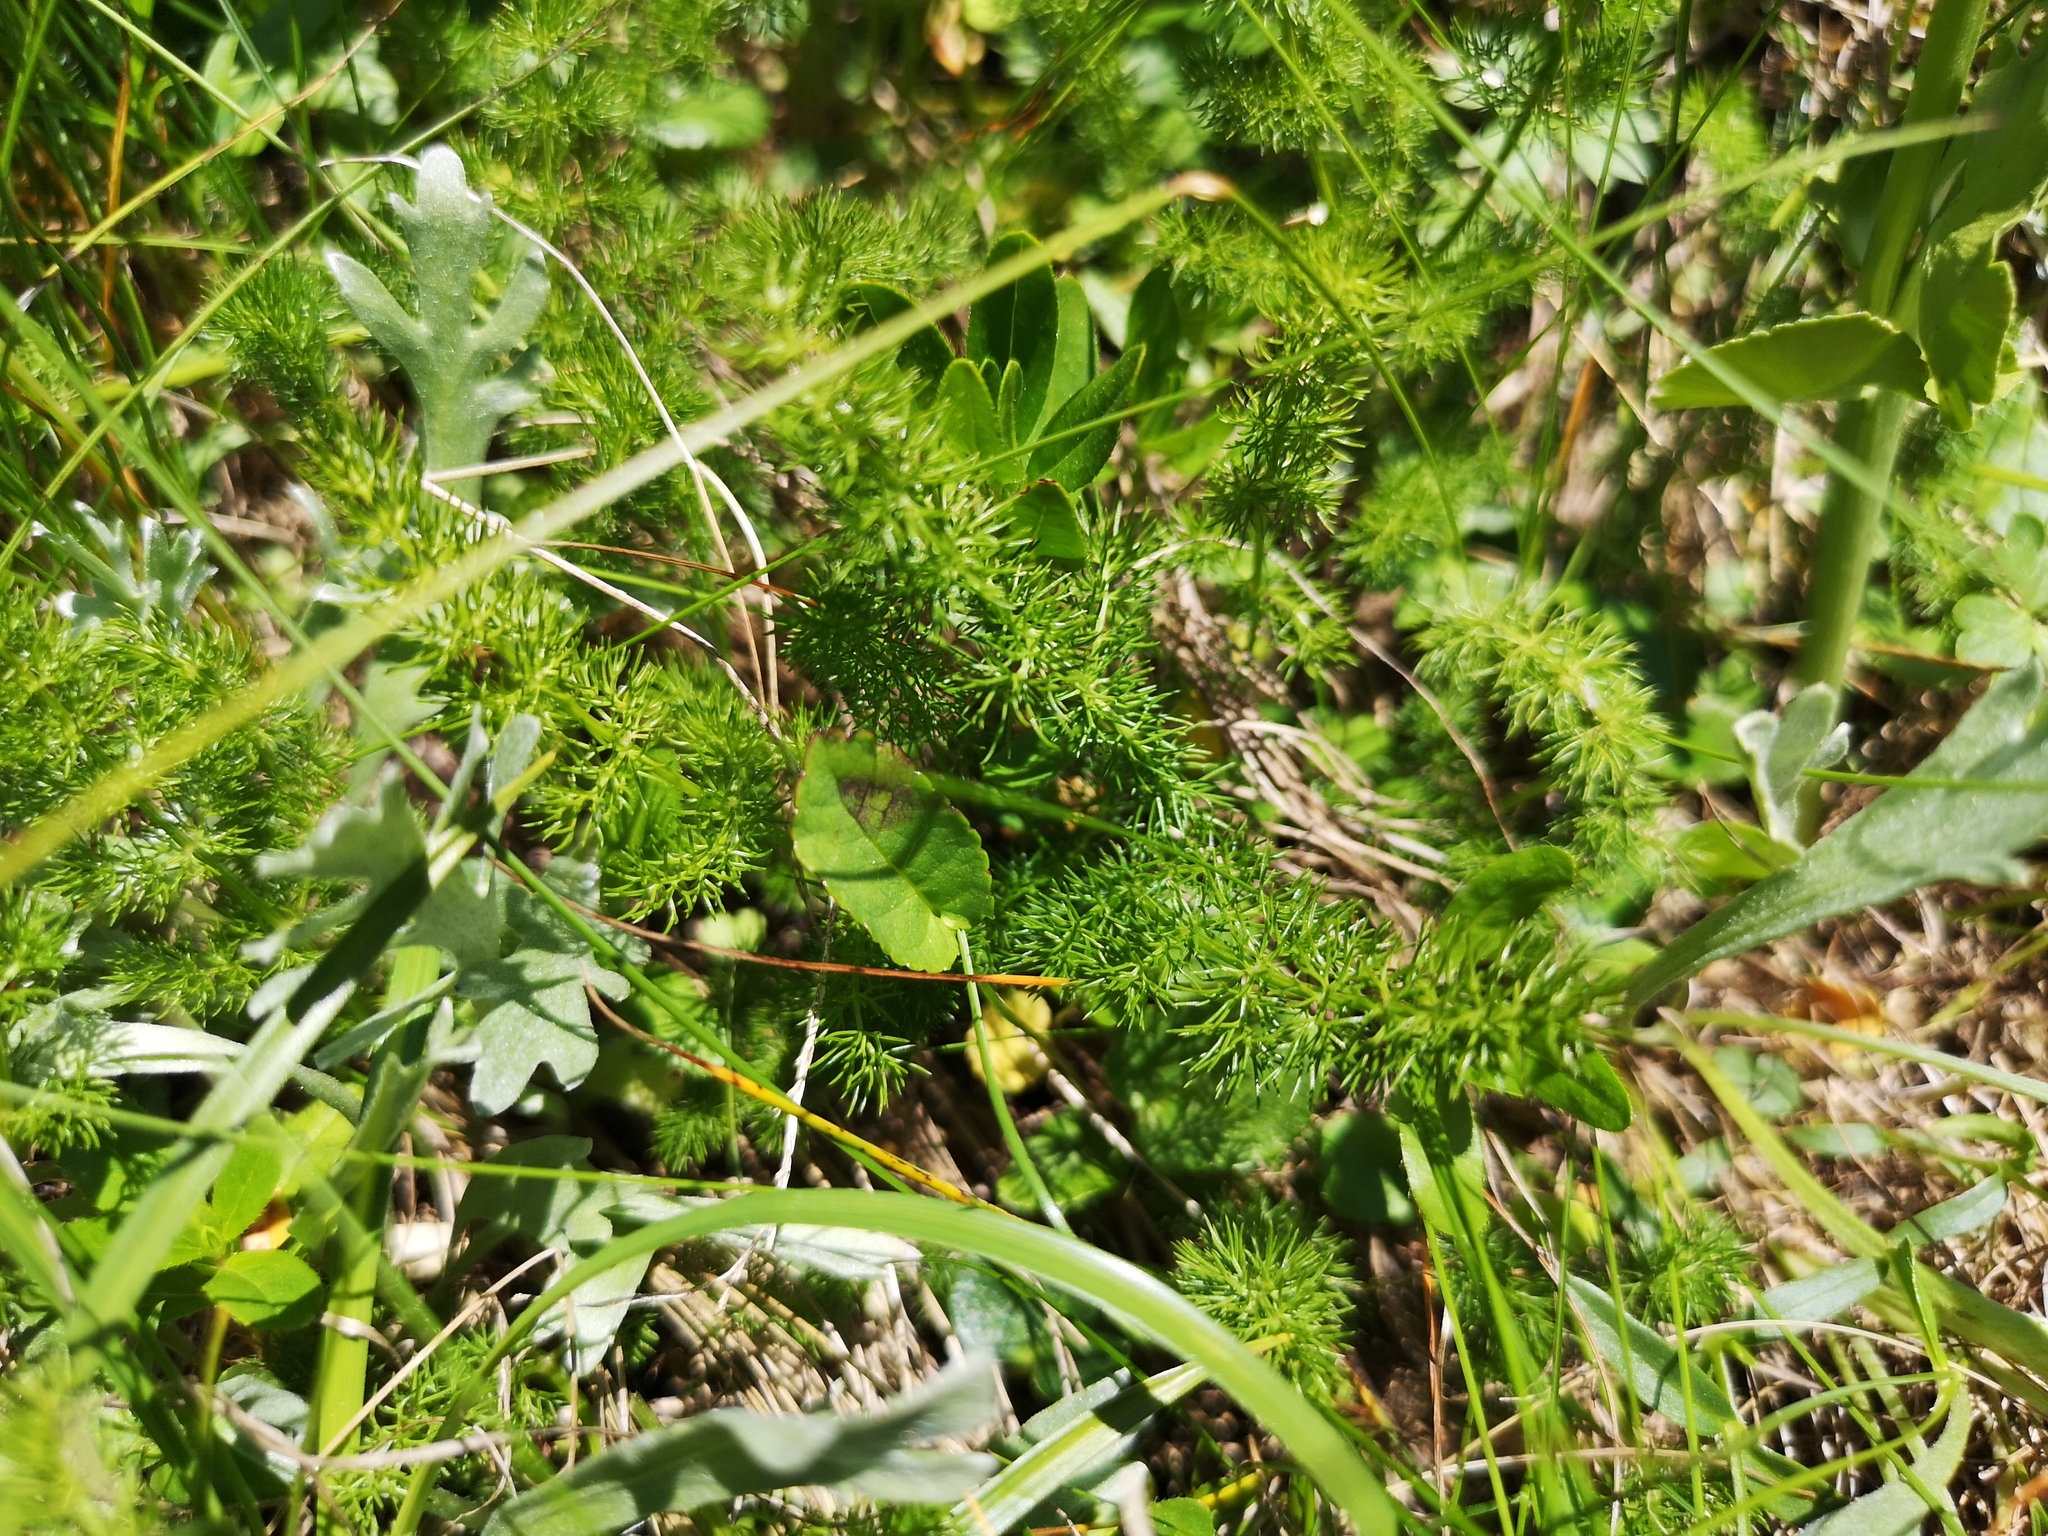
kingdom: Plantae
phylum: Tracheophyta
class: Magnoliopsida
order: Apiales
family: Apiaceae
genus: Meum
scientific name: Meum athamanticum
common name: Spignel
